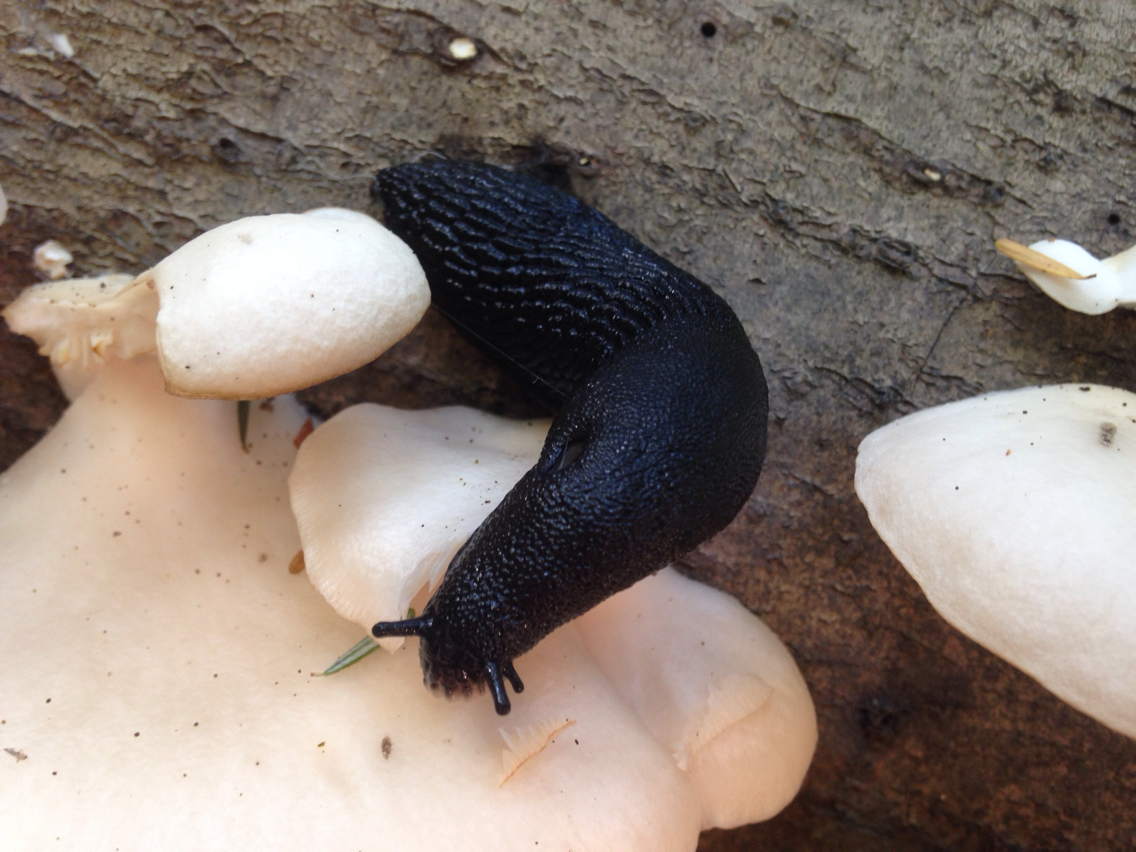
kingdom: Animalia
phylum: Mollusca
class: Gastropoda
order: Stylommatophora
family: Arionidae
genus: Arion
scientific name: Arion
